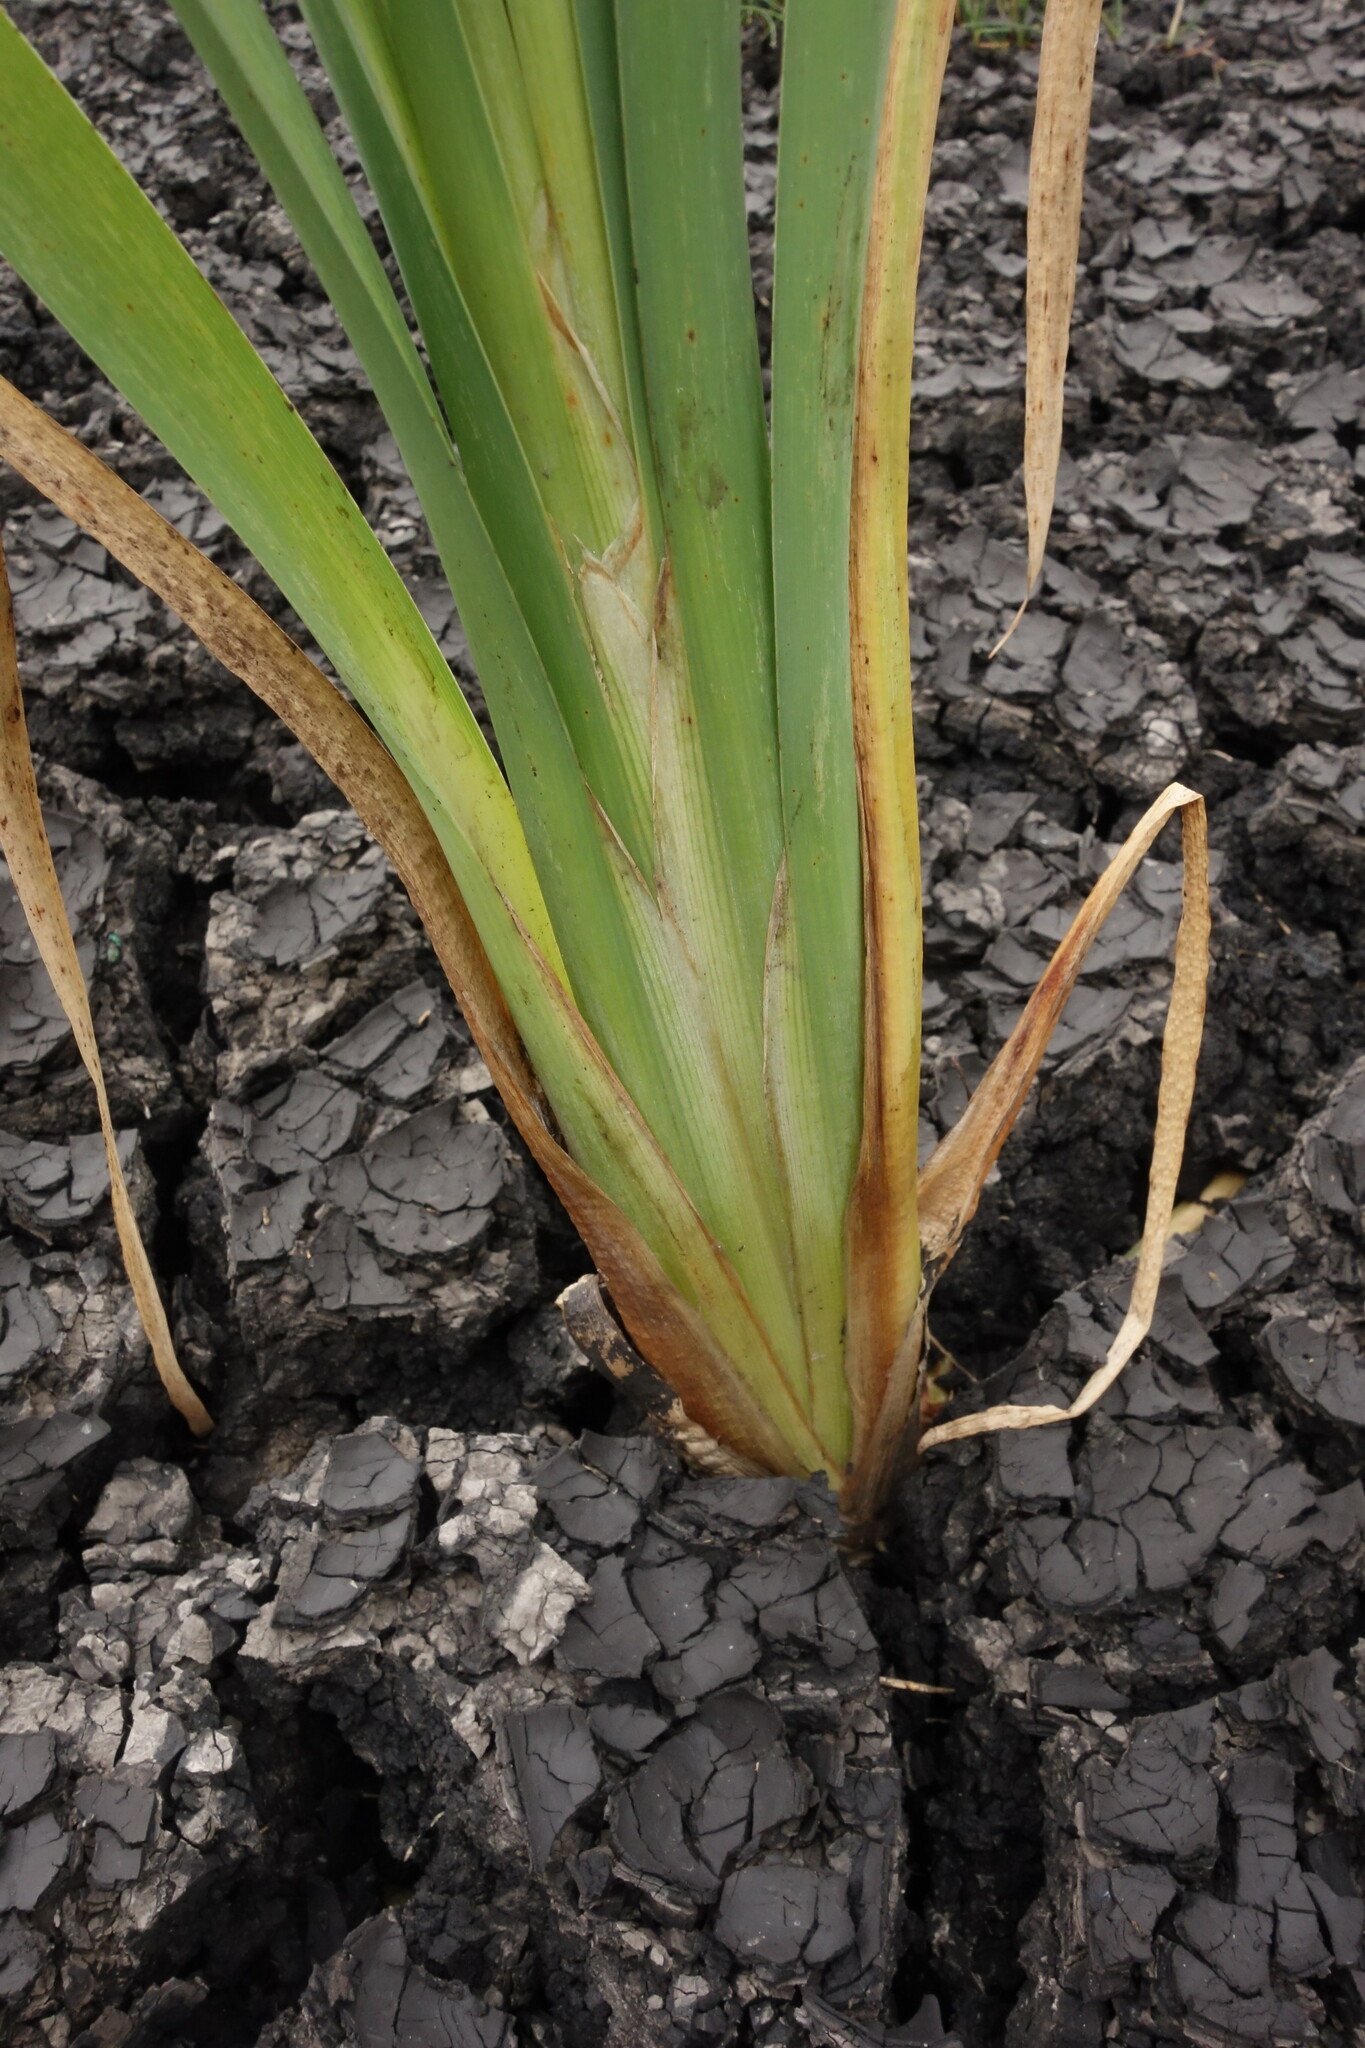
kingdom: Plantae
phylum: Tracheophyta
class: Liliopsida
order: Poales
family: Typhaceae
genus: Typha
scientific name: Typha latifolia
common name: Broadleaf cattail
